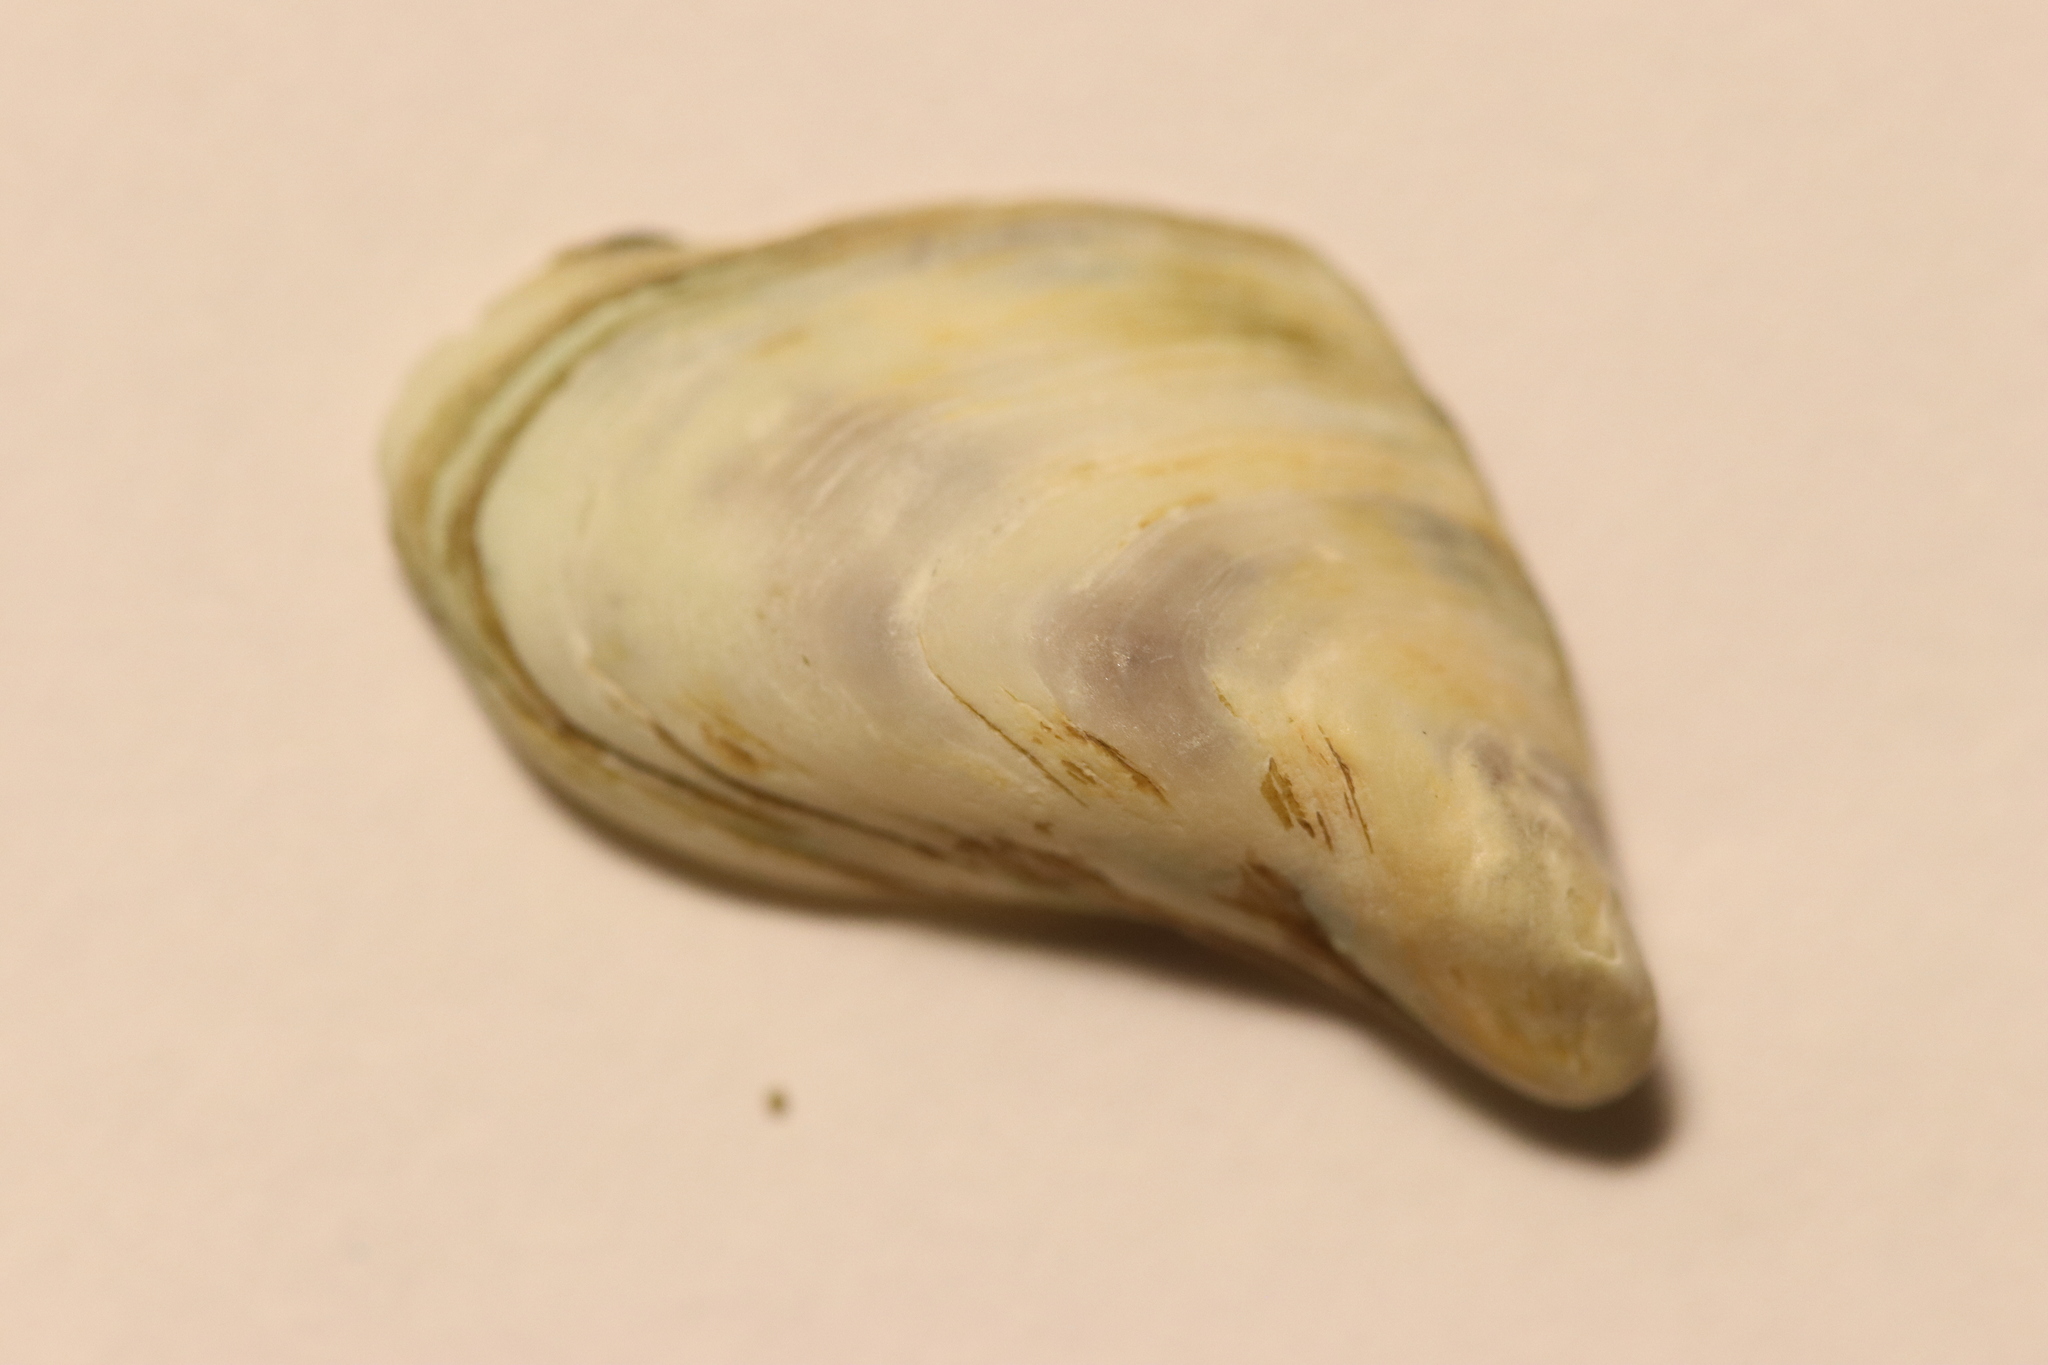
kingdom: Animalia
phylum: Mollusca
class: Bivalvia
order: Myida
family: Dreissenidae
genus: Dreissena
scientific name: Dreissena bugensis
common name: Quagga mussel
